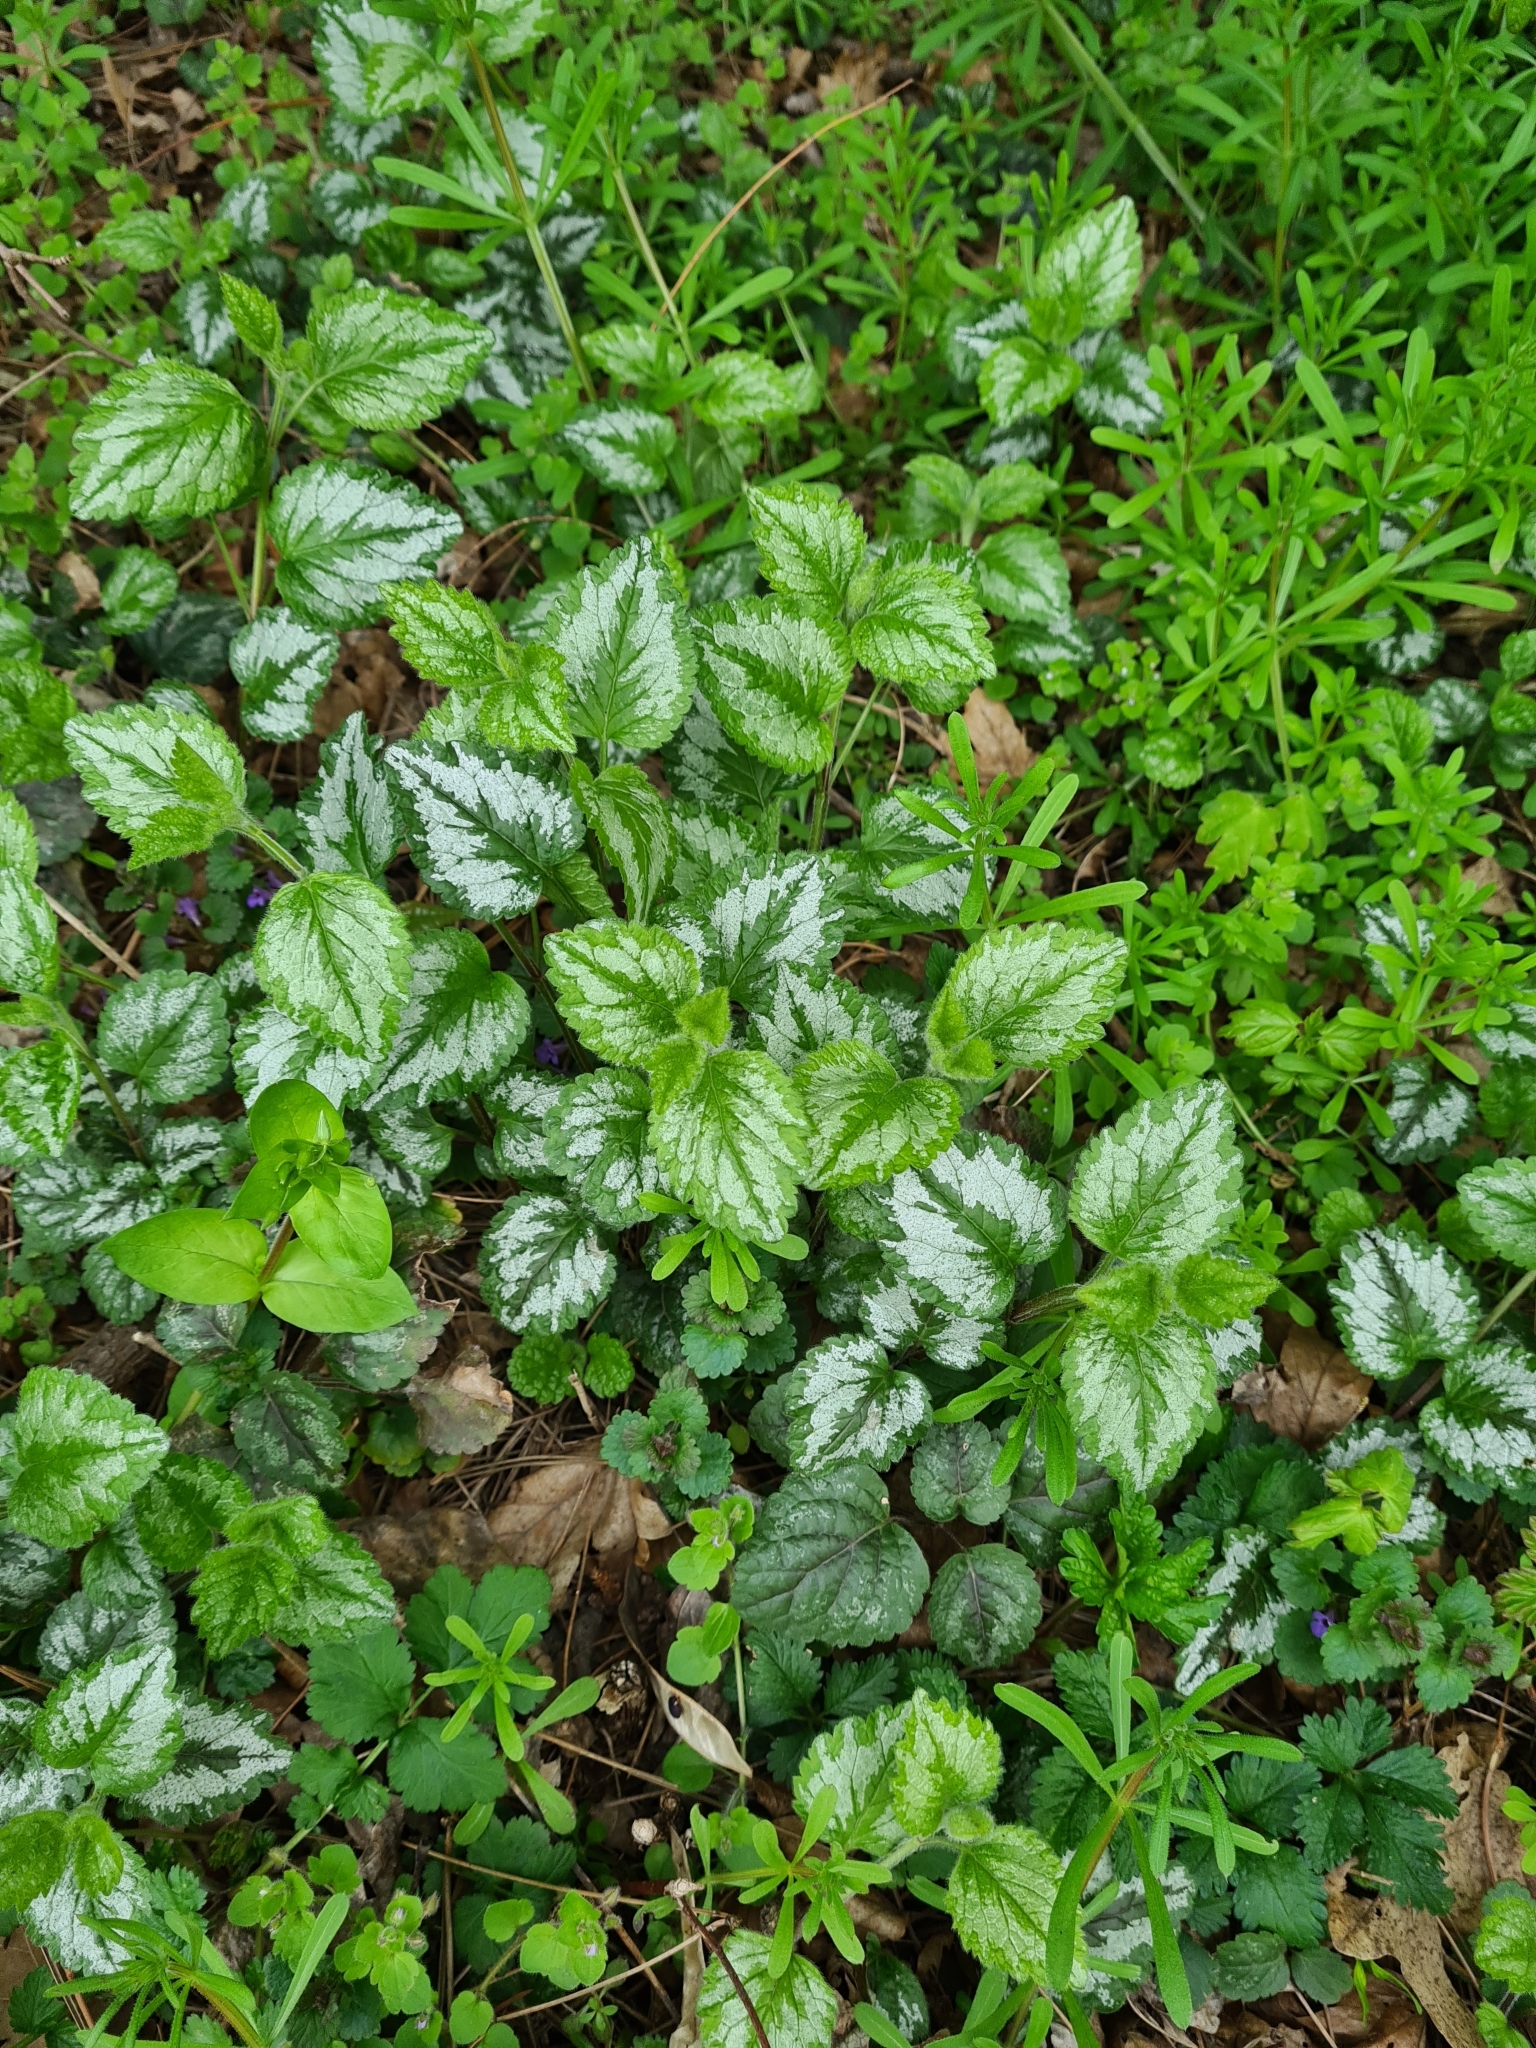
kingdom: Plantae
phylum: Tracheophyta
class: Magnoliopsida
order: Lamiales
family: Lamiaceae
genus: Lamium
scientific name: Lamium galeobdolon
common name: Yellow archangel
